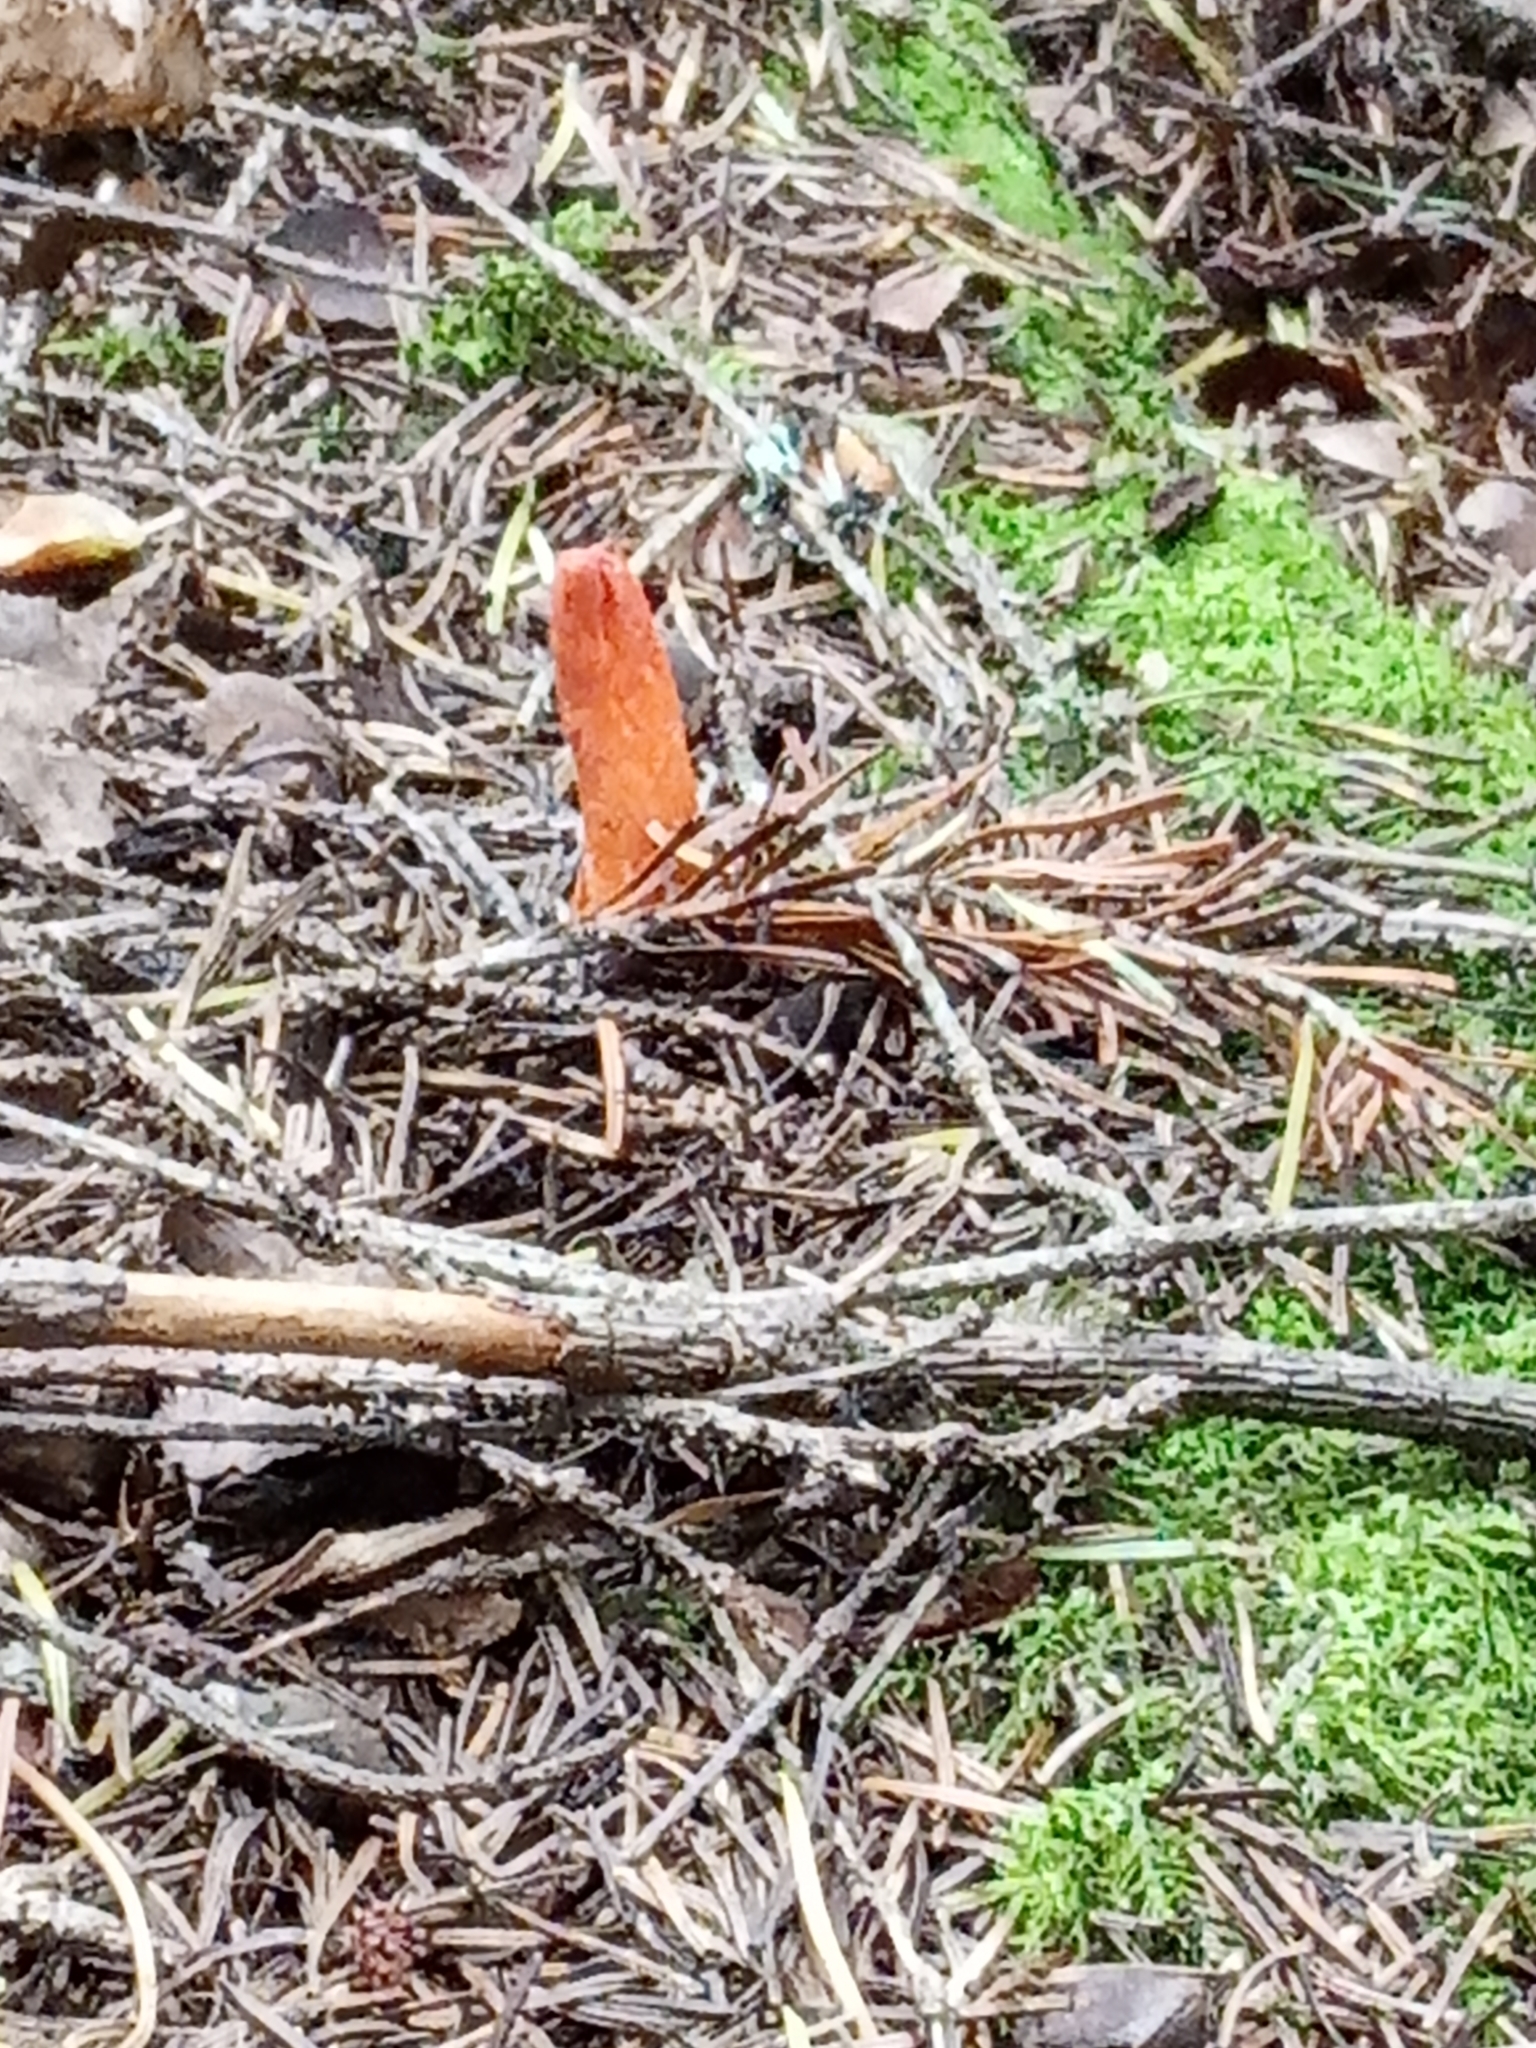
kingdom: Fungi
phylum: Ascomycota
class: Sordariomycetes
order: Hypocreales
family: Cordycipitaceae
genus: Cordyceps
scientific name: Cordyceps militaris
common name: Scarlet caterpillar fungus
